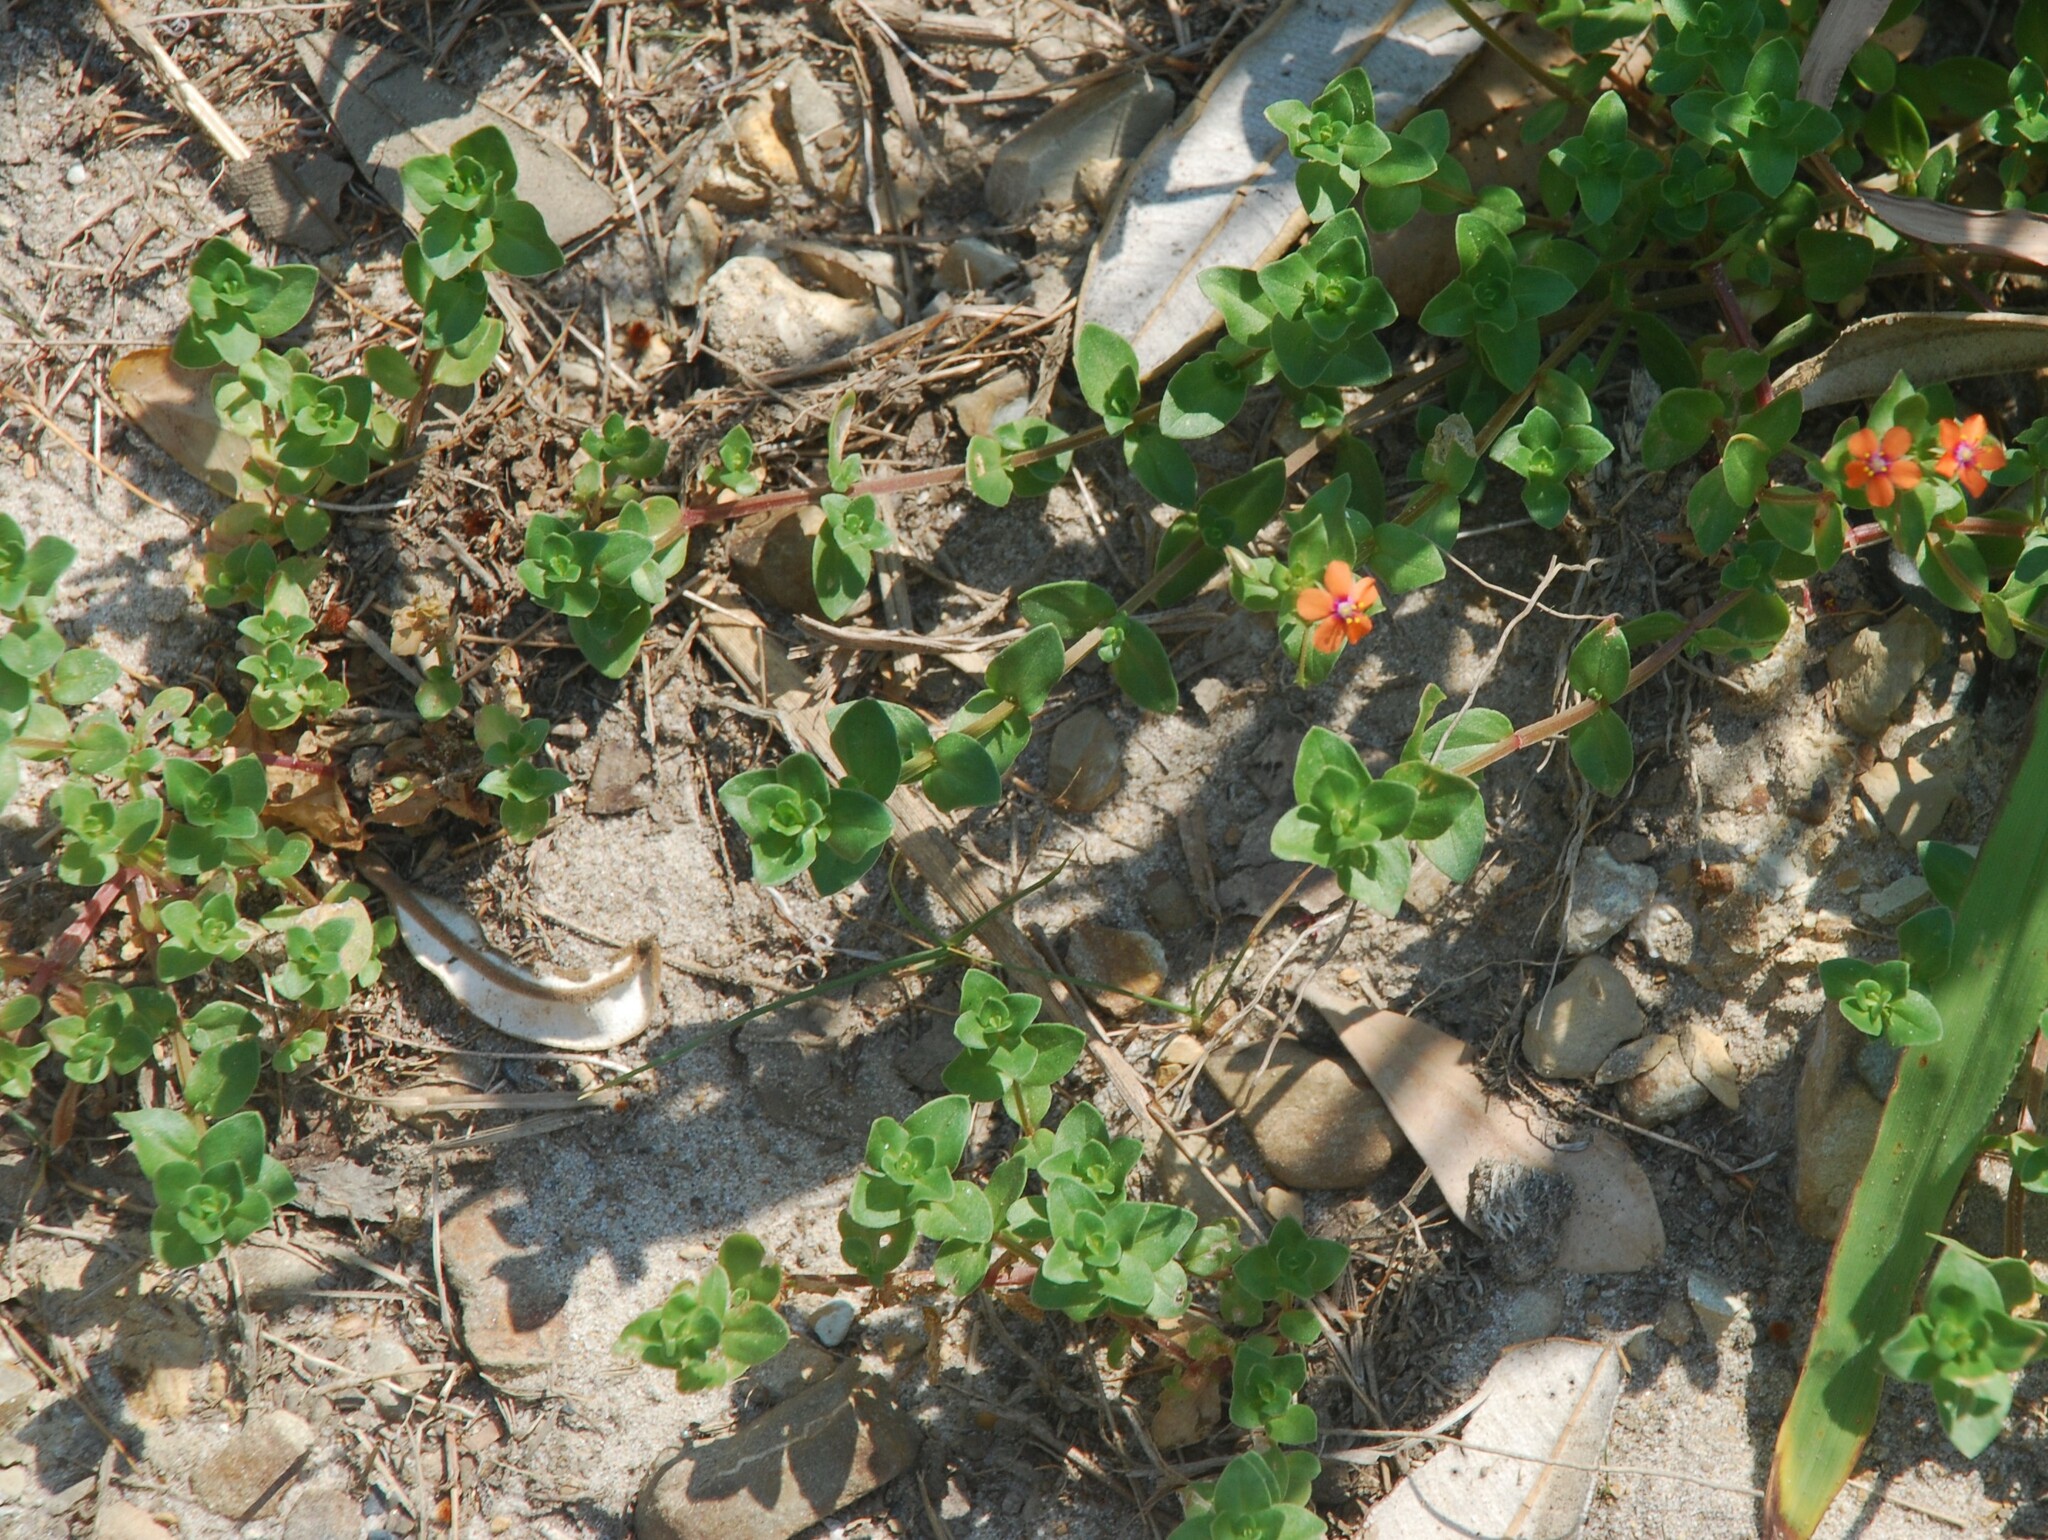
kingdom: Plantae
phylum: Tracheophyta
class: Magnoliopsida
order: Ericales
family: Primulaceae
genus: Lysimachia
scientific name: Lysimachia arvensis
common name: Scarlet pimpernel
